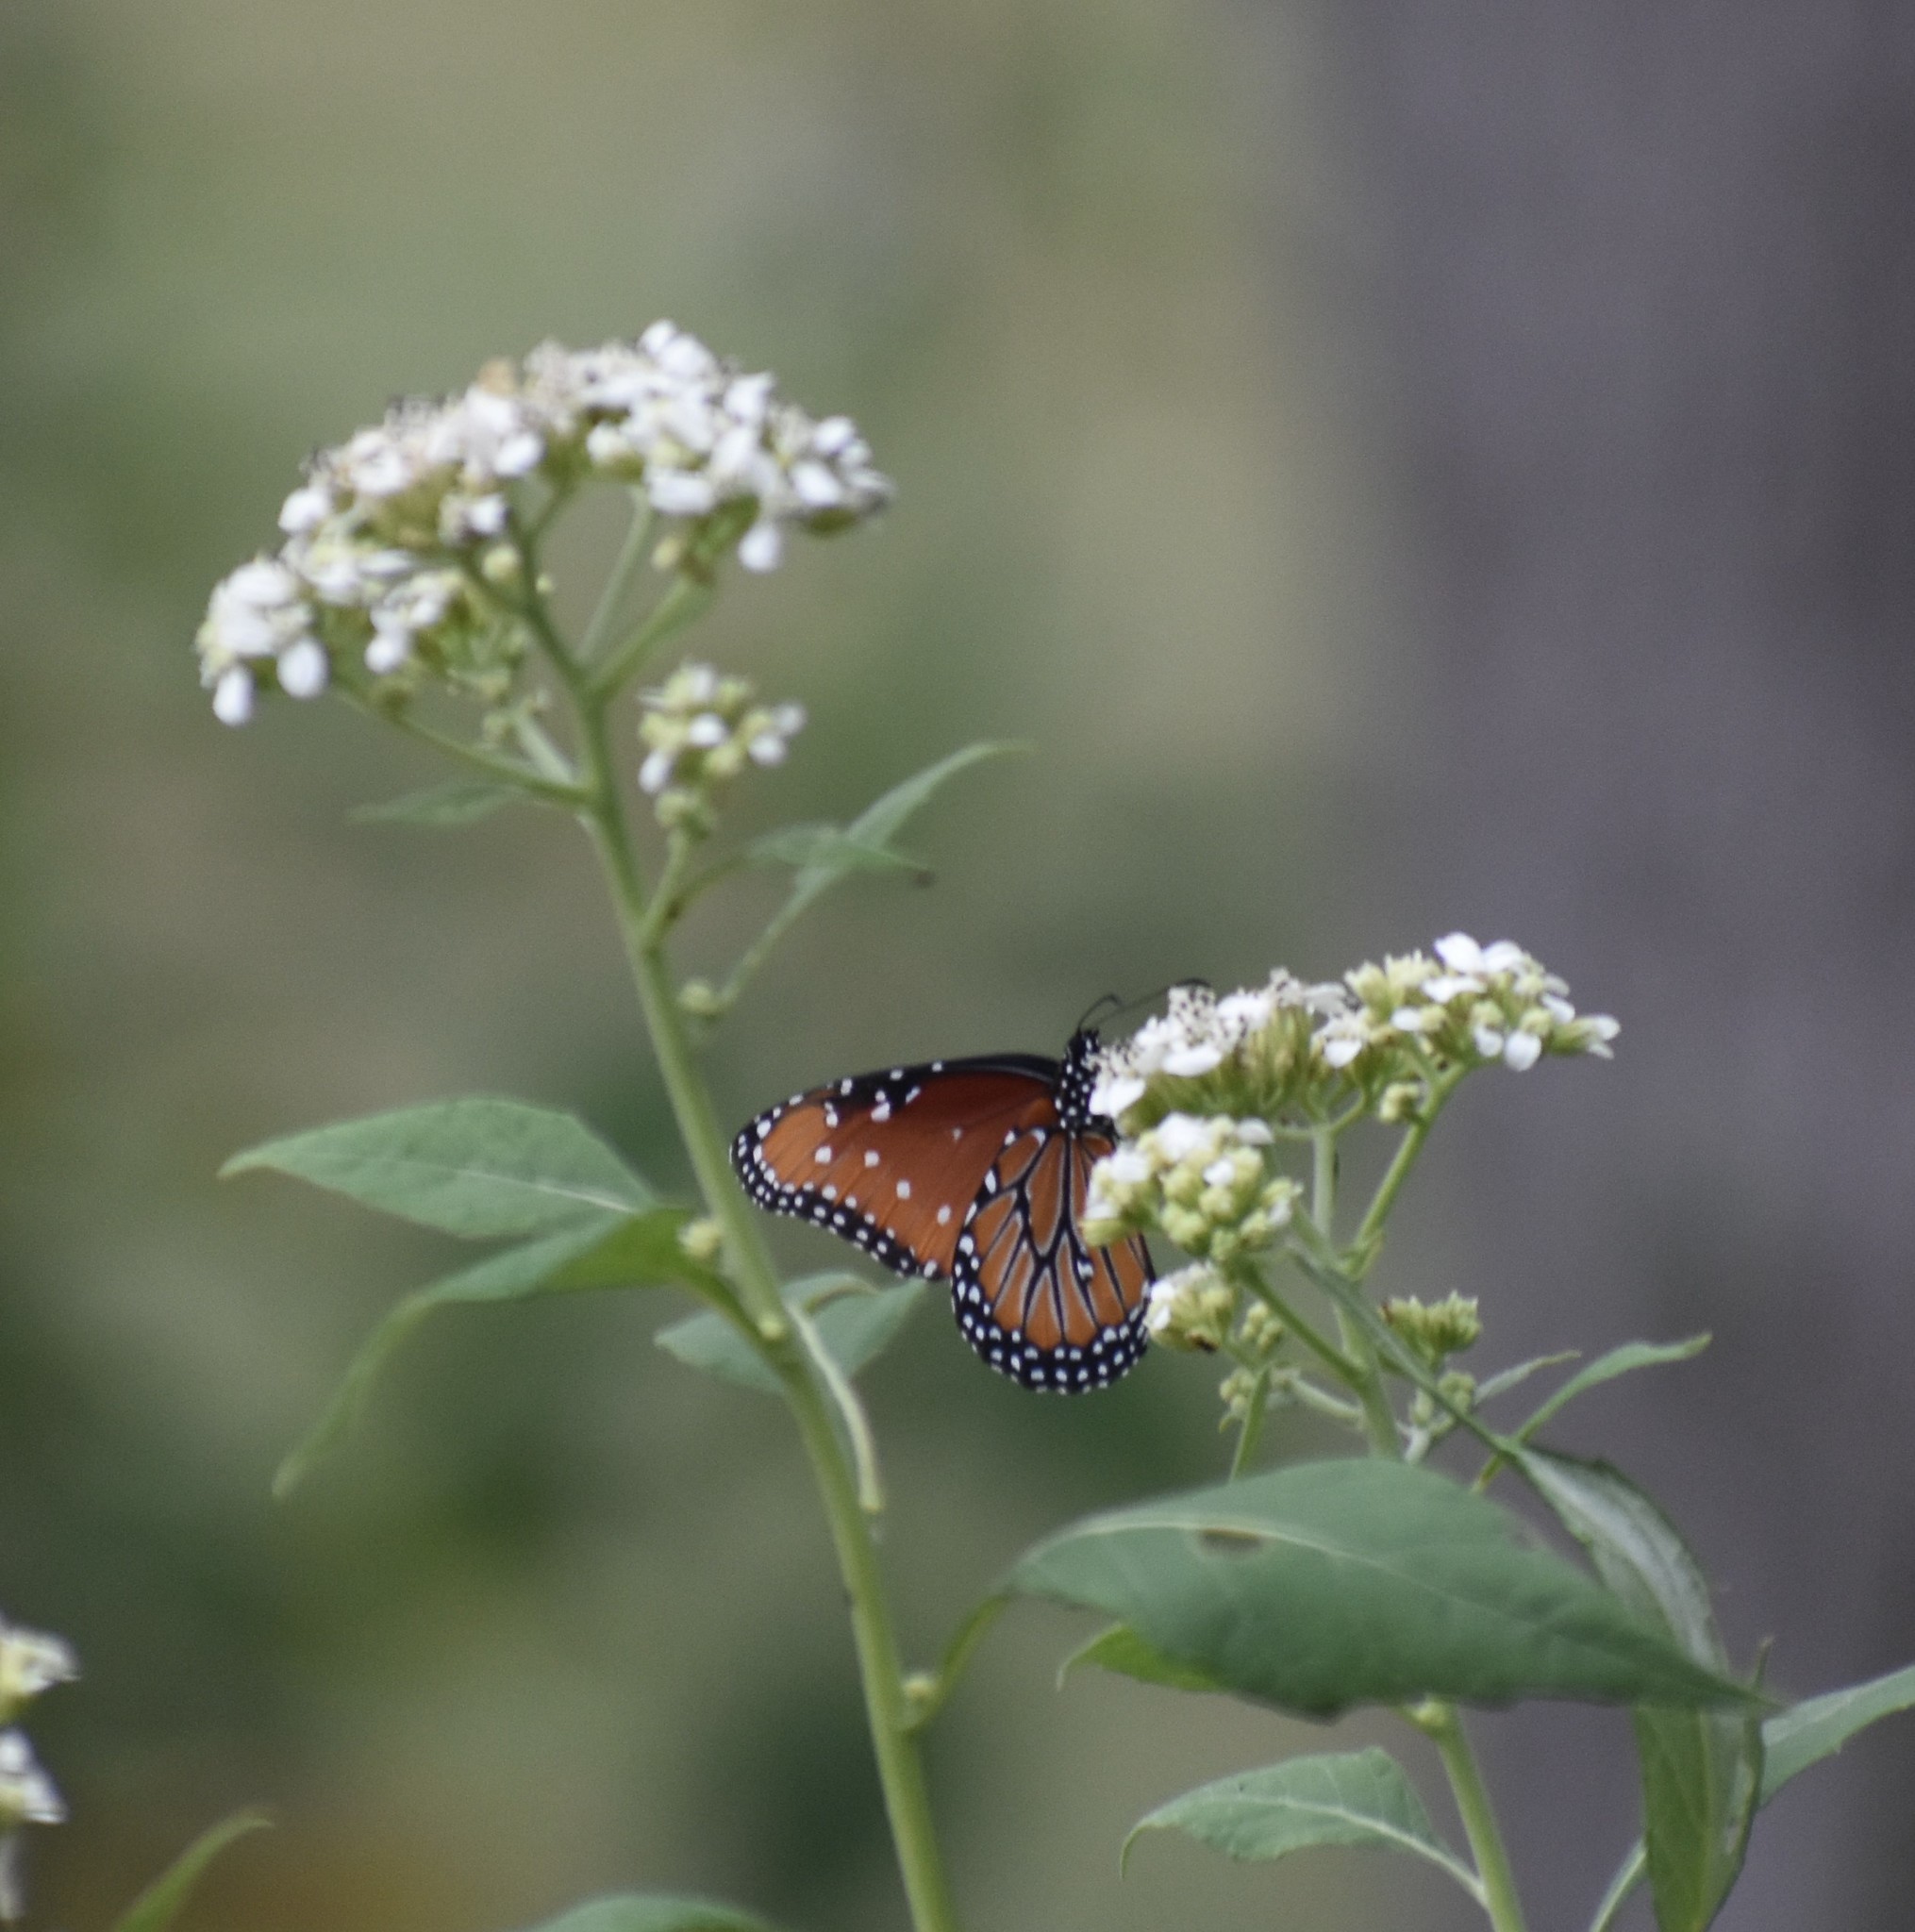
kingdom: Animalia
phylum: Arthropoda
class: Insecta
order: Lepidoptera
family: Nymphalidae
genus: Danaus
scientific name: Danaus gilippus
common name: Queen
